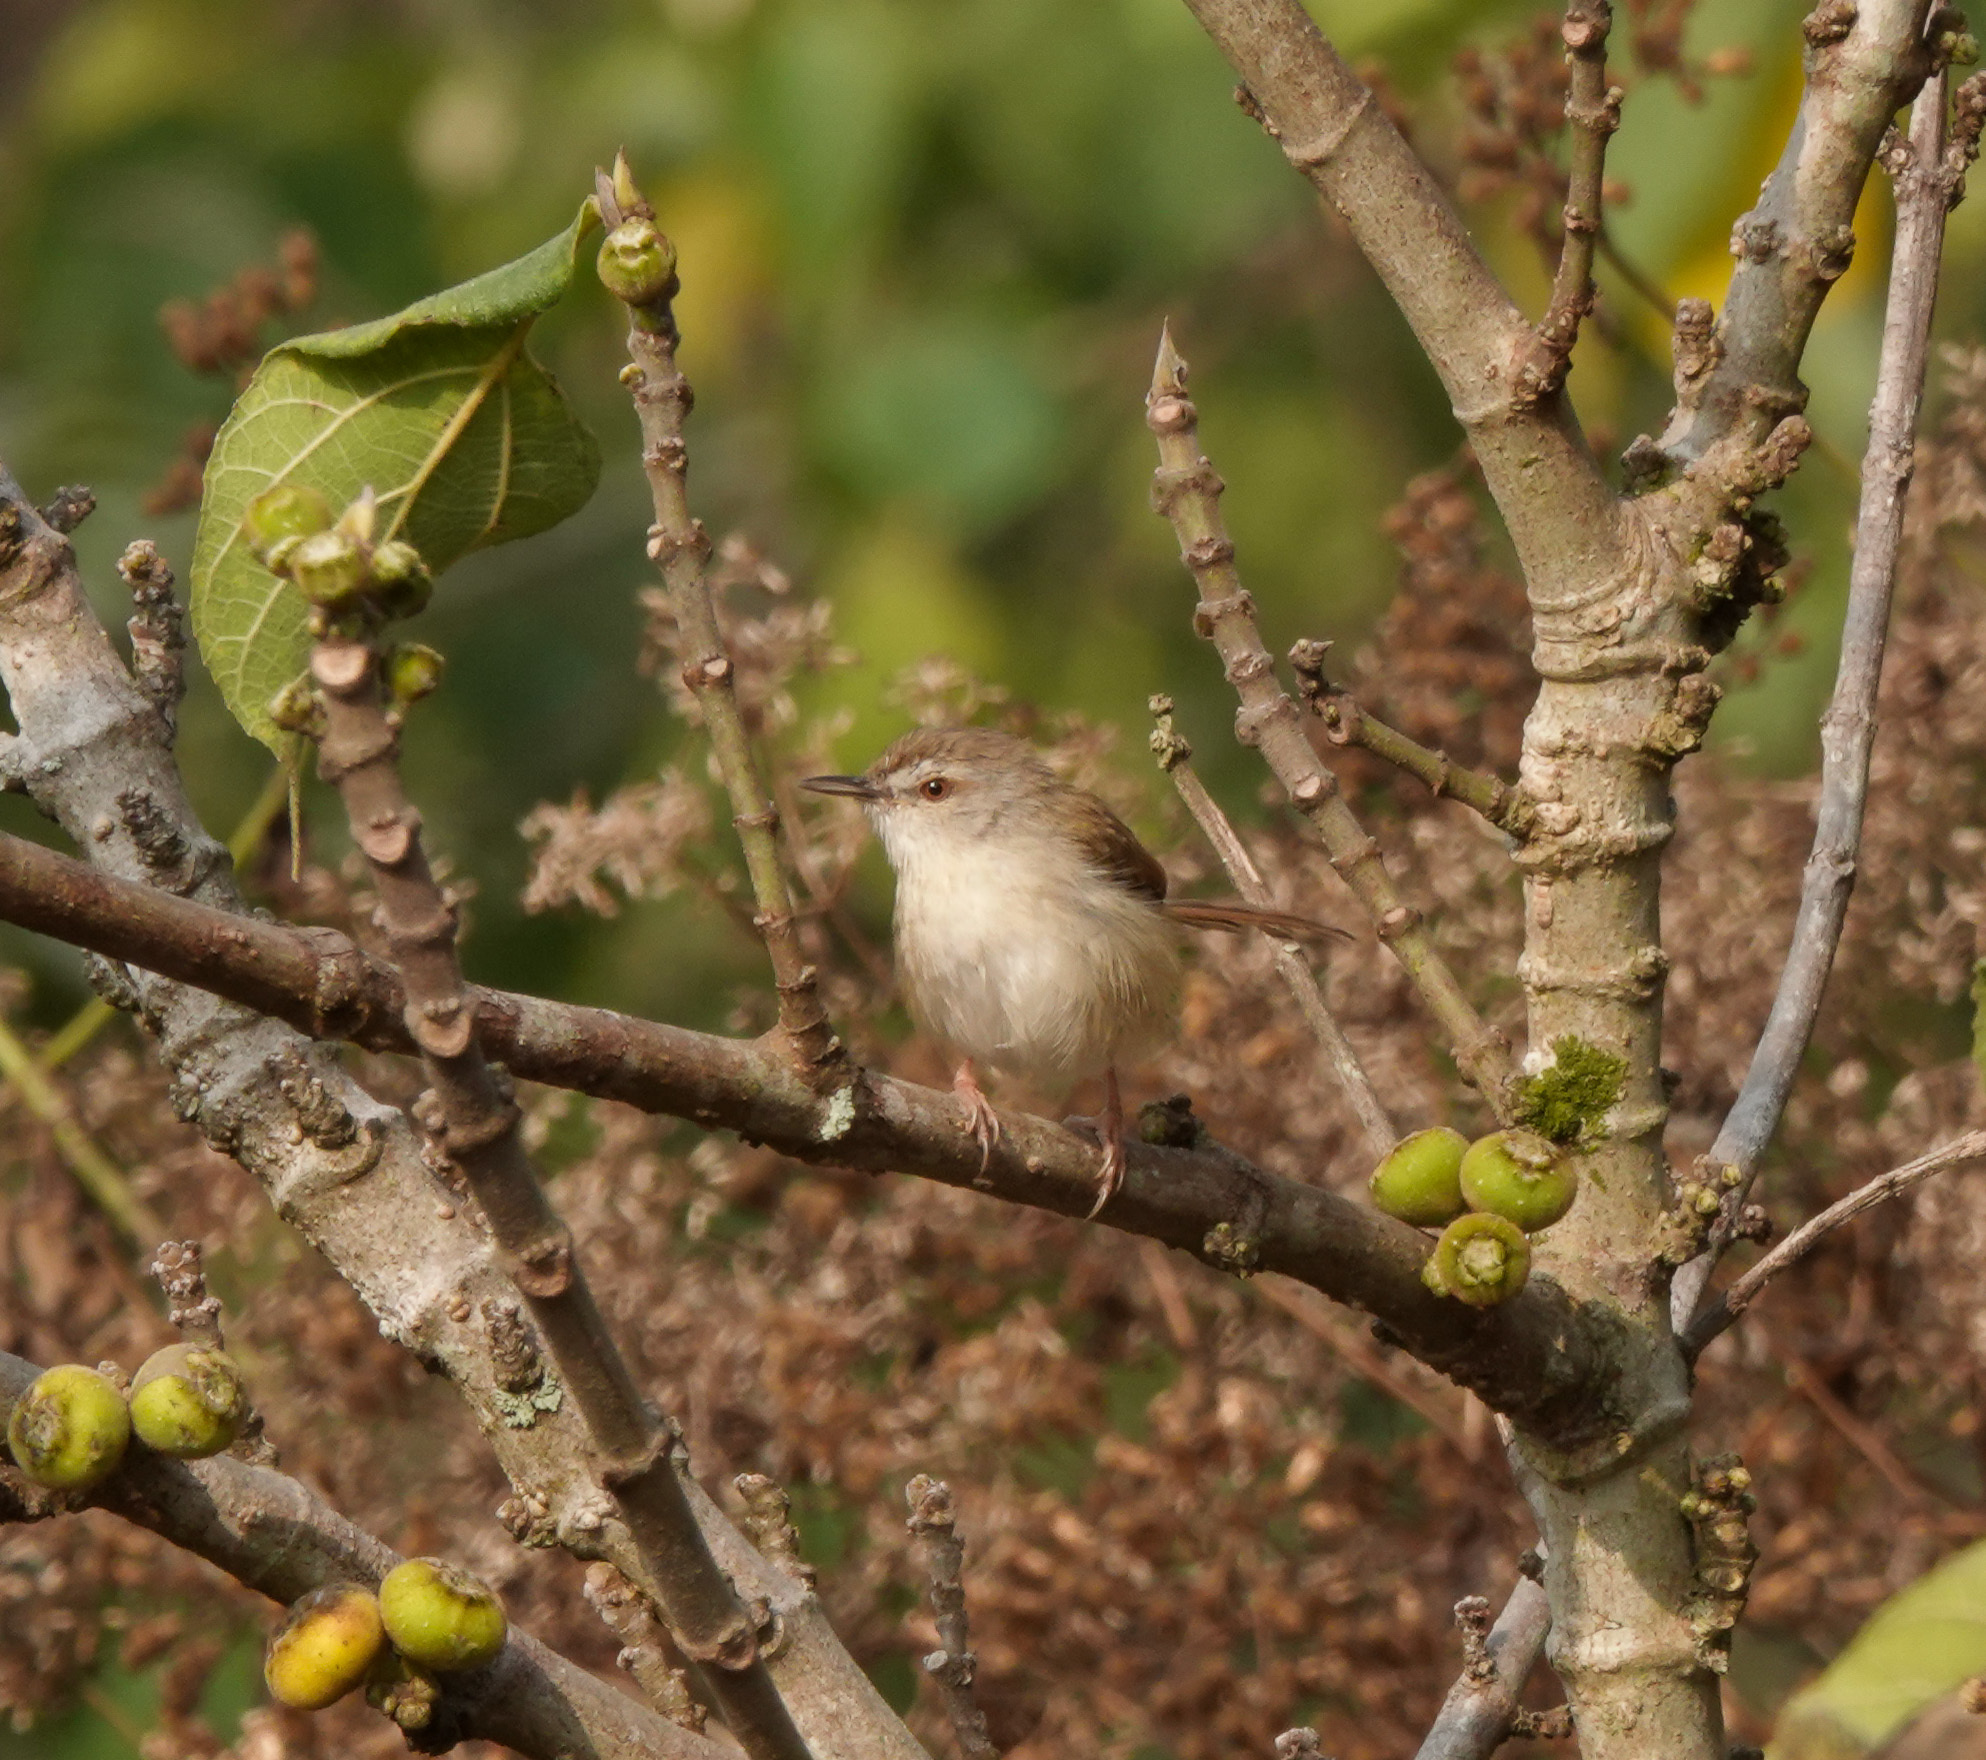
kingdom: Animalia
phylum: Chordata
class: Aves
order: Passeriformes
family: Cisticolidae
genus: Prinia
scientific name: Prinia rufescens
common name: Rufescent prinia
